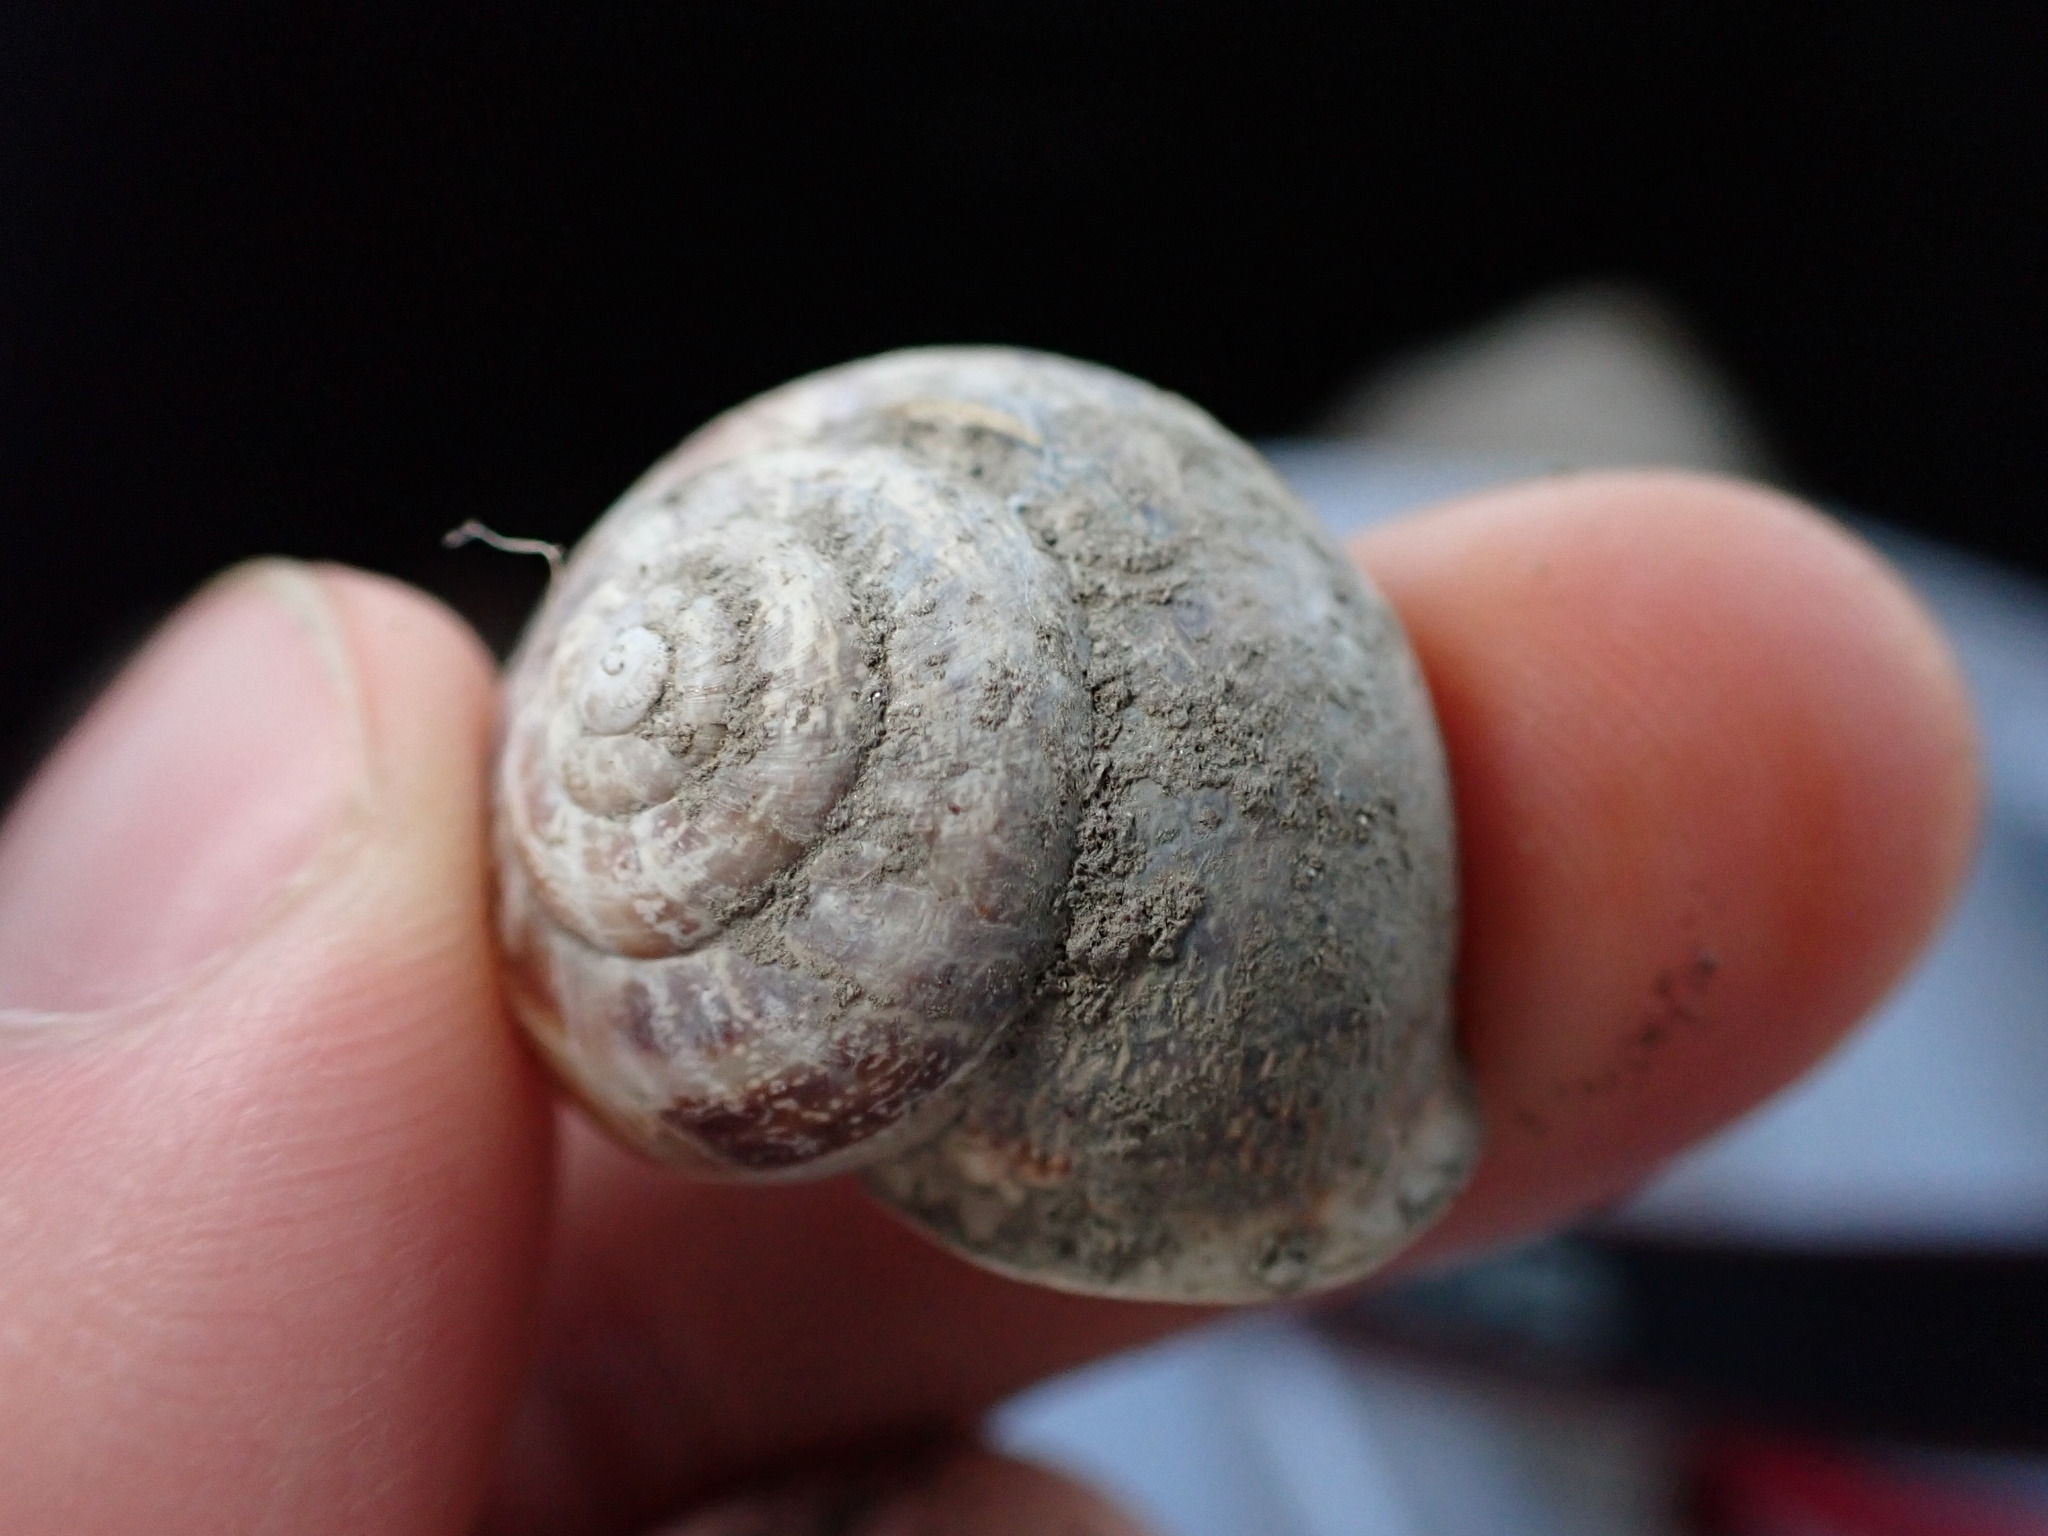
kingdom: Animalia
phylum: Mollusca
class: Gastropoda
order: Stylommatophora
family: Helicidae
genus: Eobania
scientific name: Eobania vermiculata
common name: Chocolateband snail
